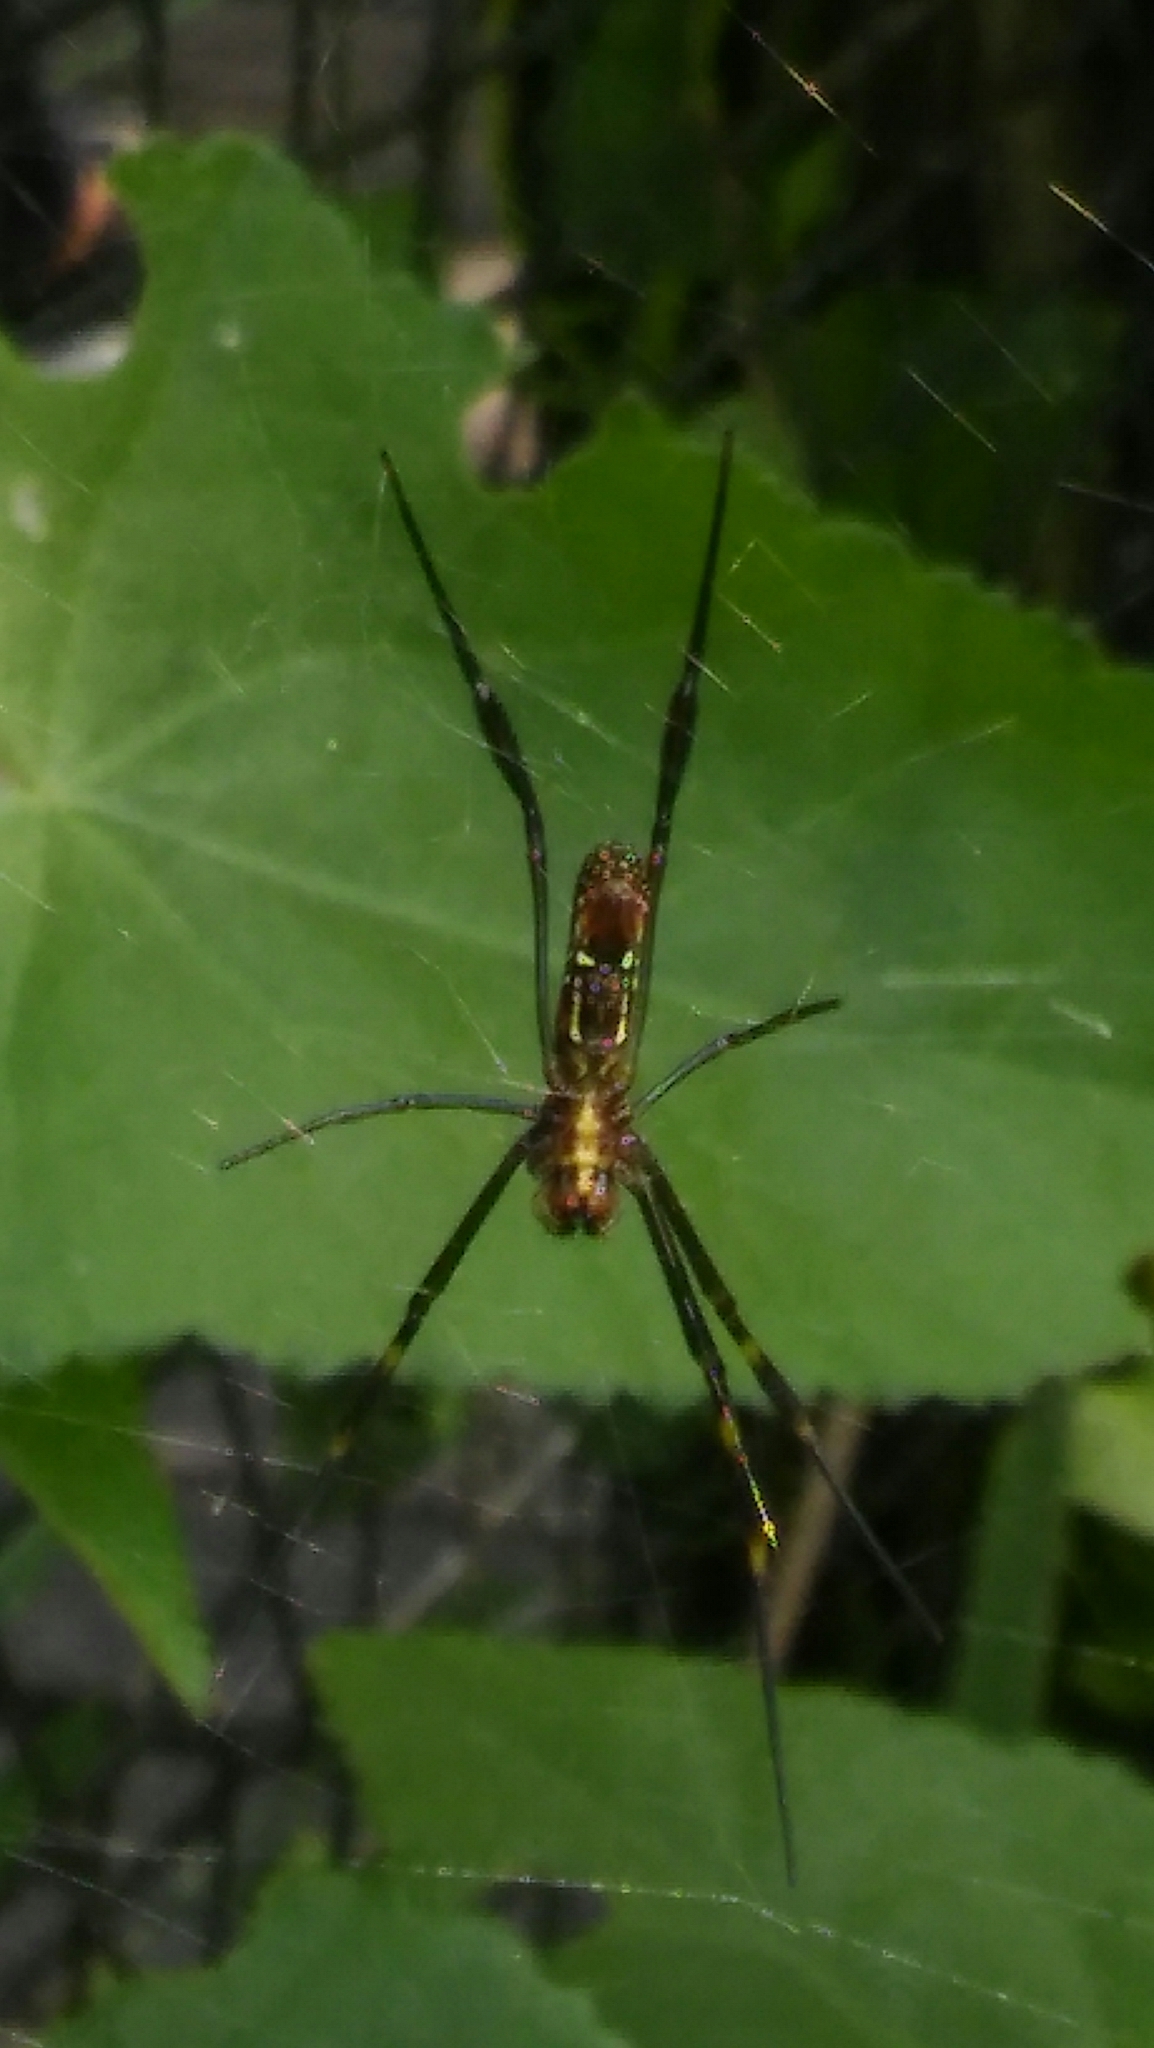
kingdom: Animalia
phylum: Arthropoda
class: Arachnida
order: Araneae
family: Araneidae
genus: Trichonephila
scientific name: Trichonephila clavipes
